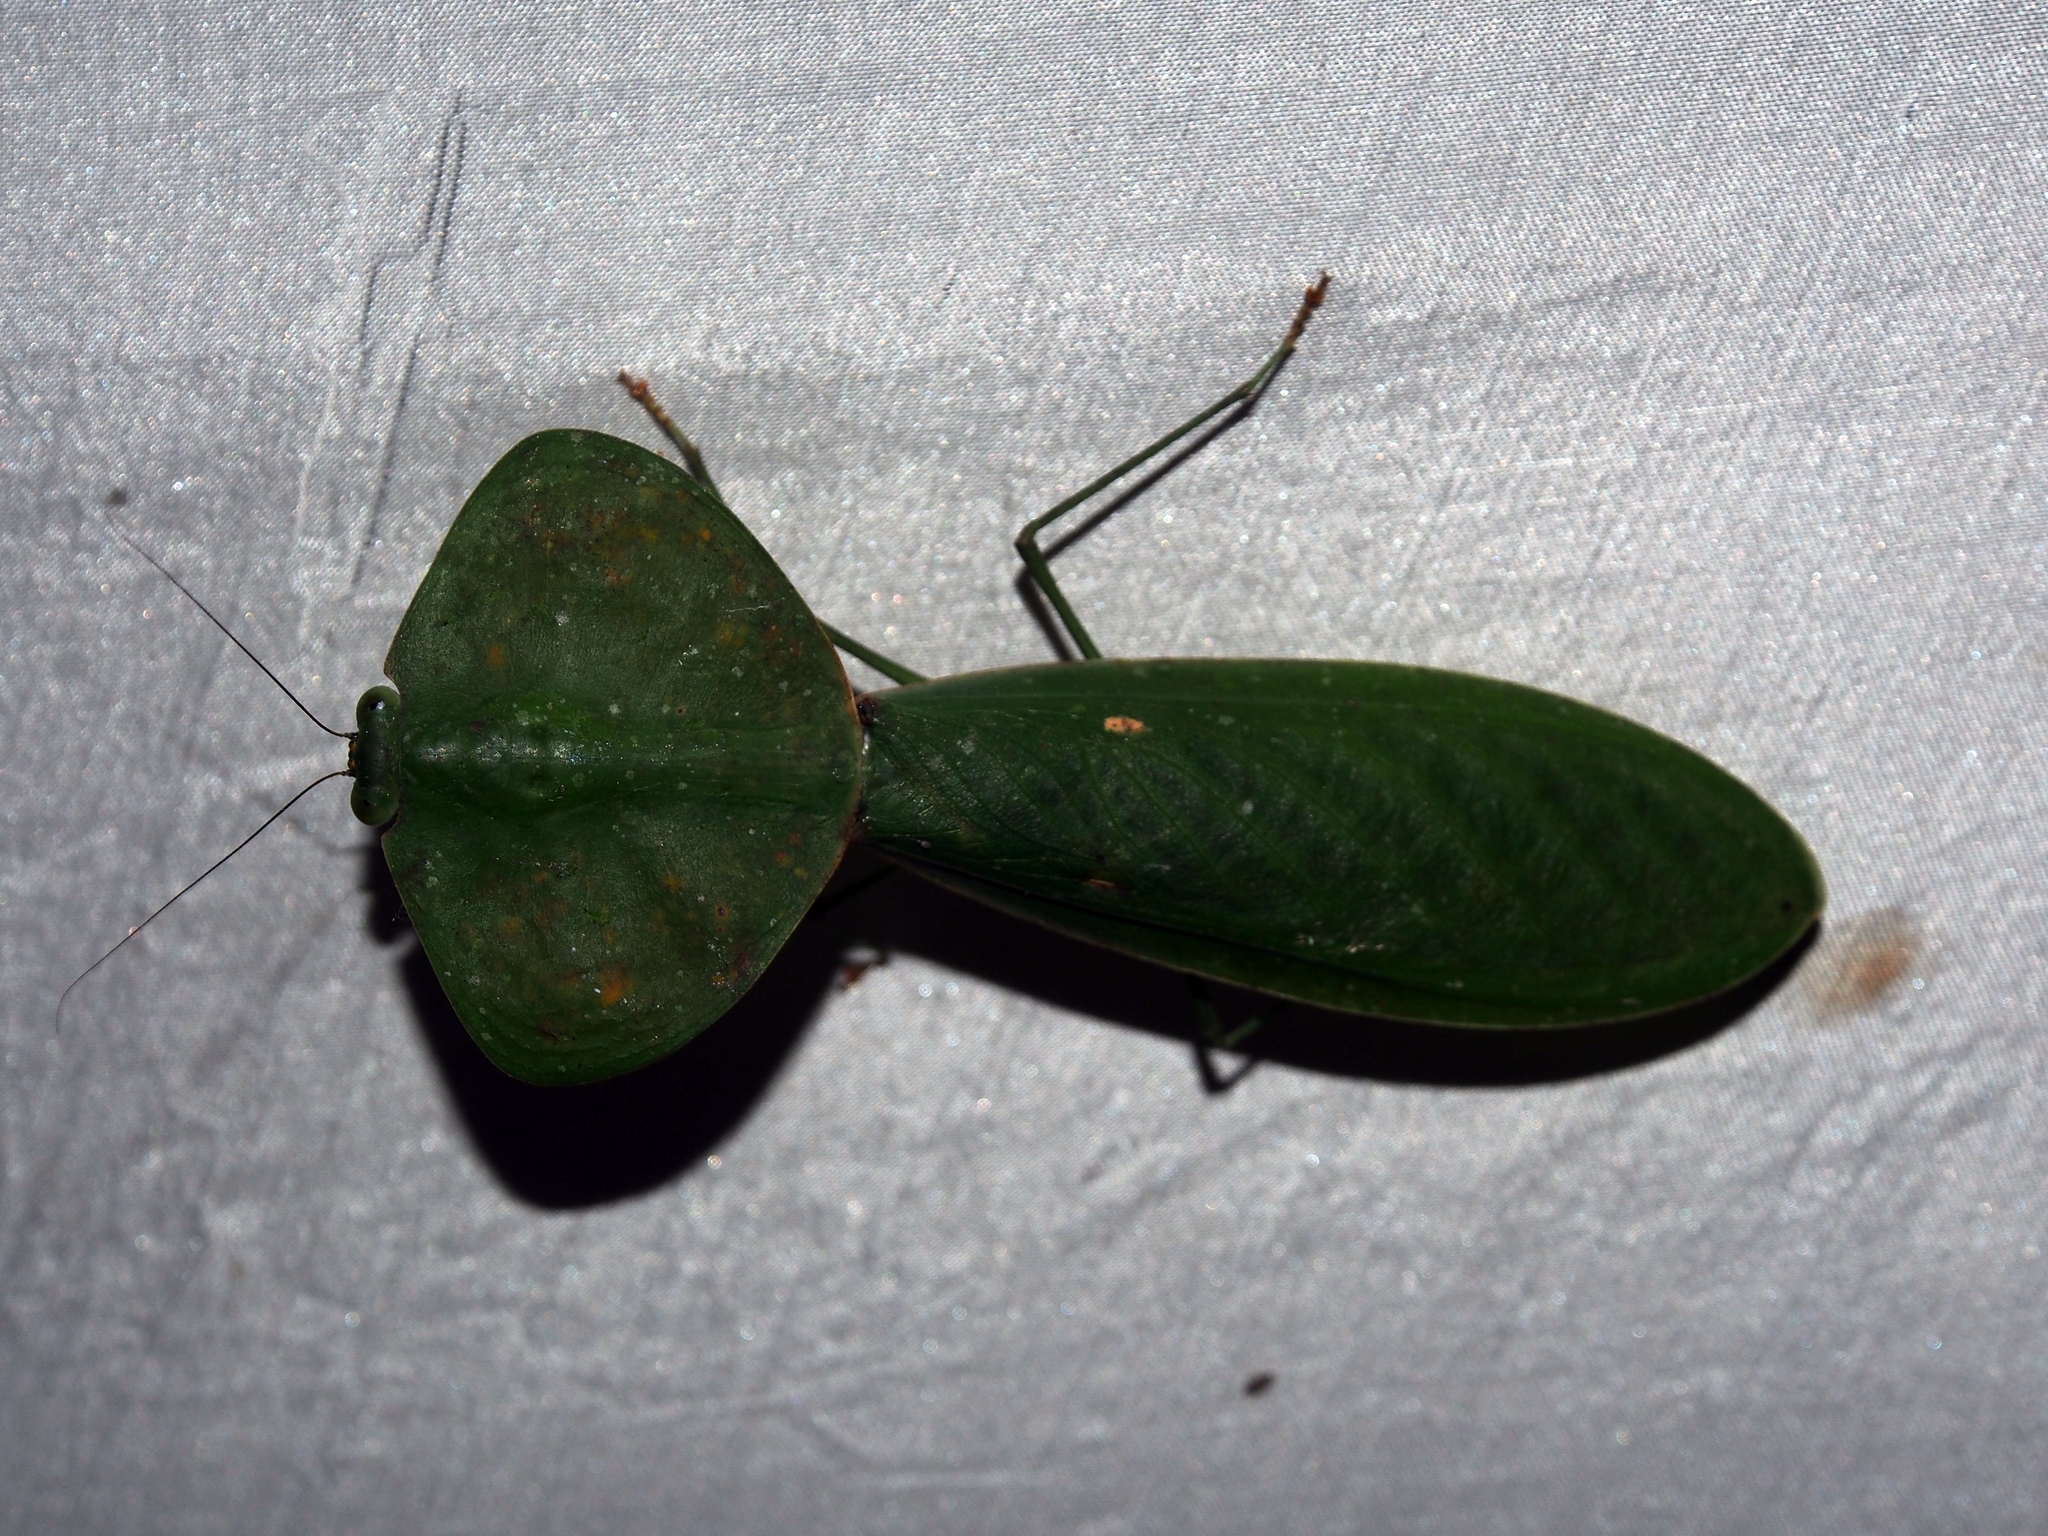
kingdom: Animalia
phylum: Arthropoda
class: Insecta
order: Mantodea
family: Mantidae
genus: Choeradodis
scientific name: Choeradodis rhombicollis
